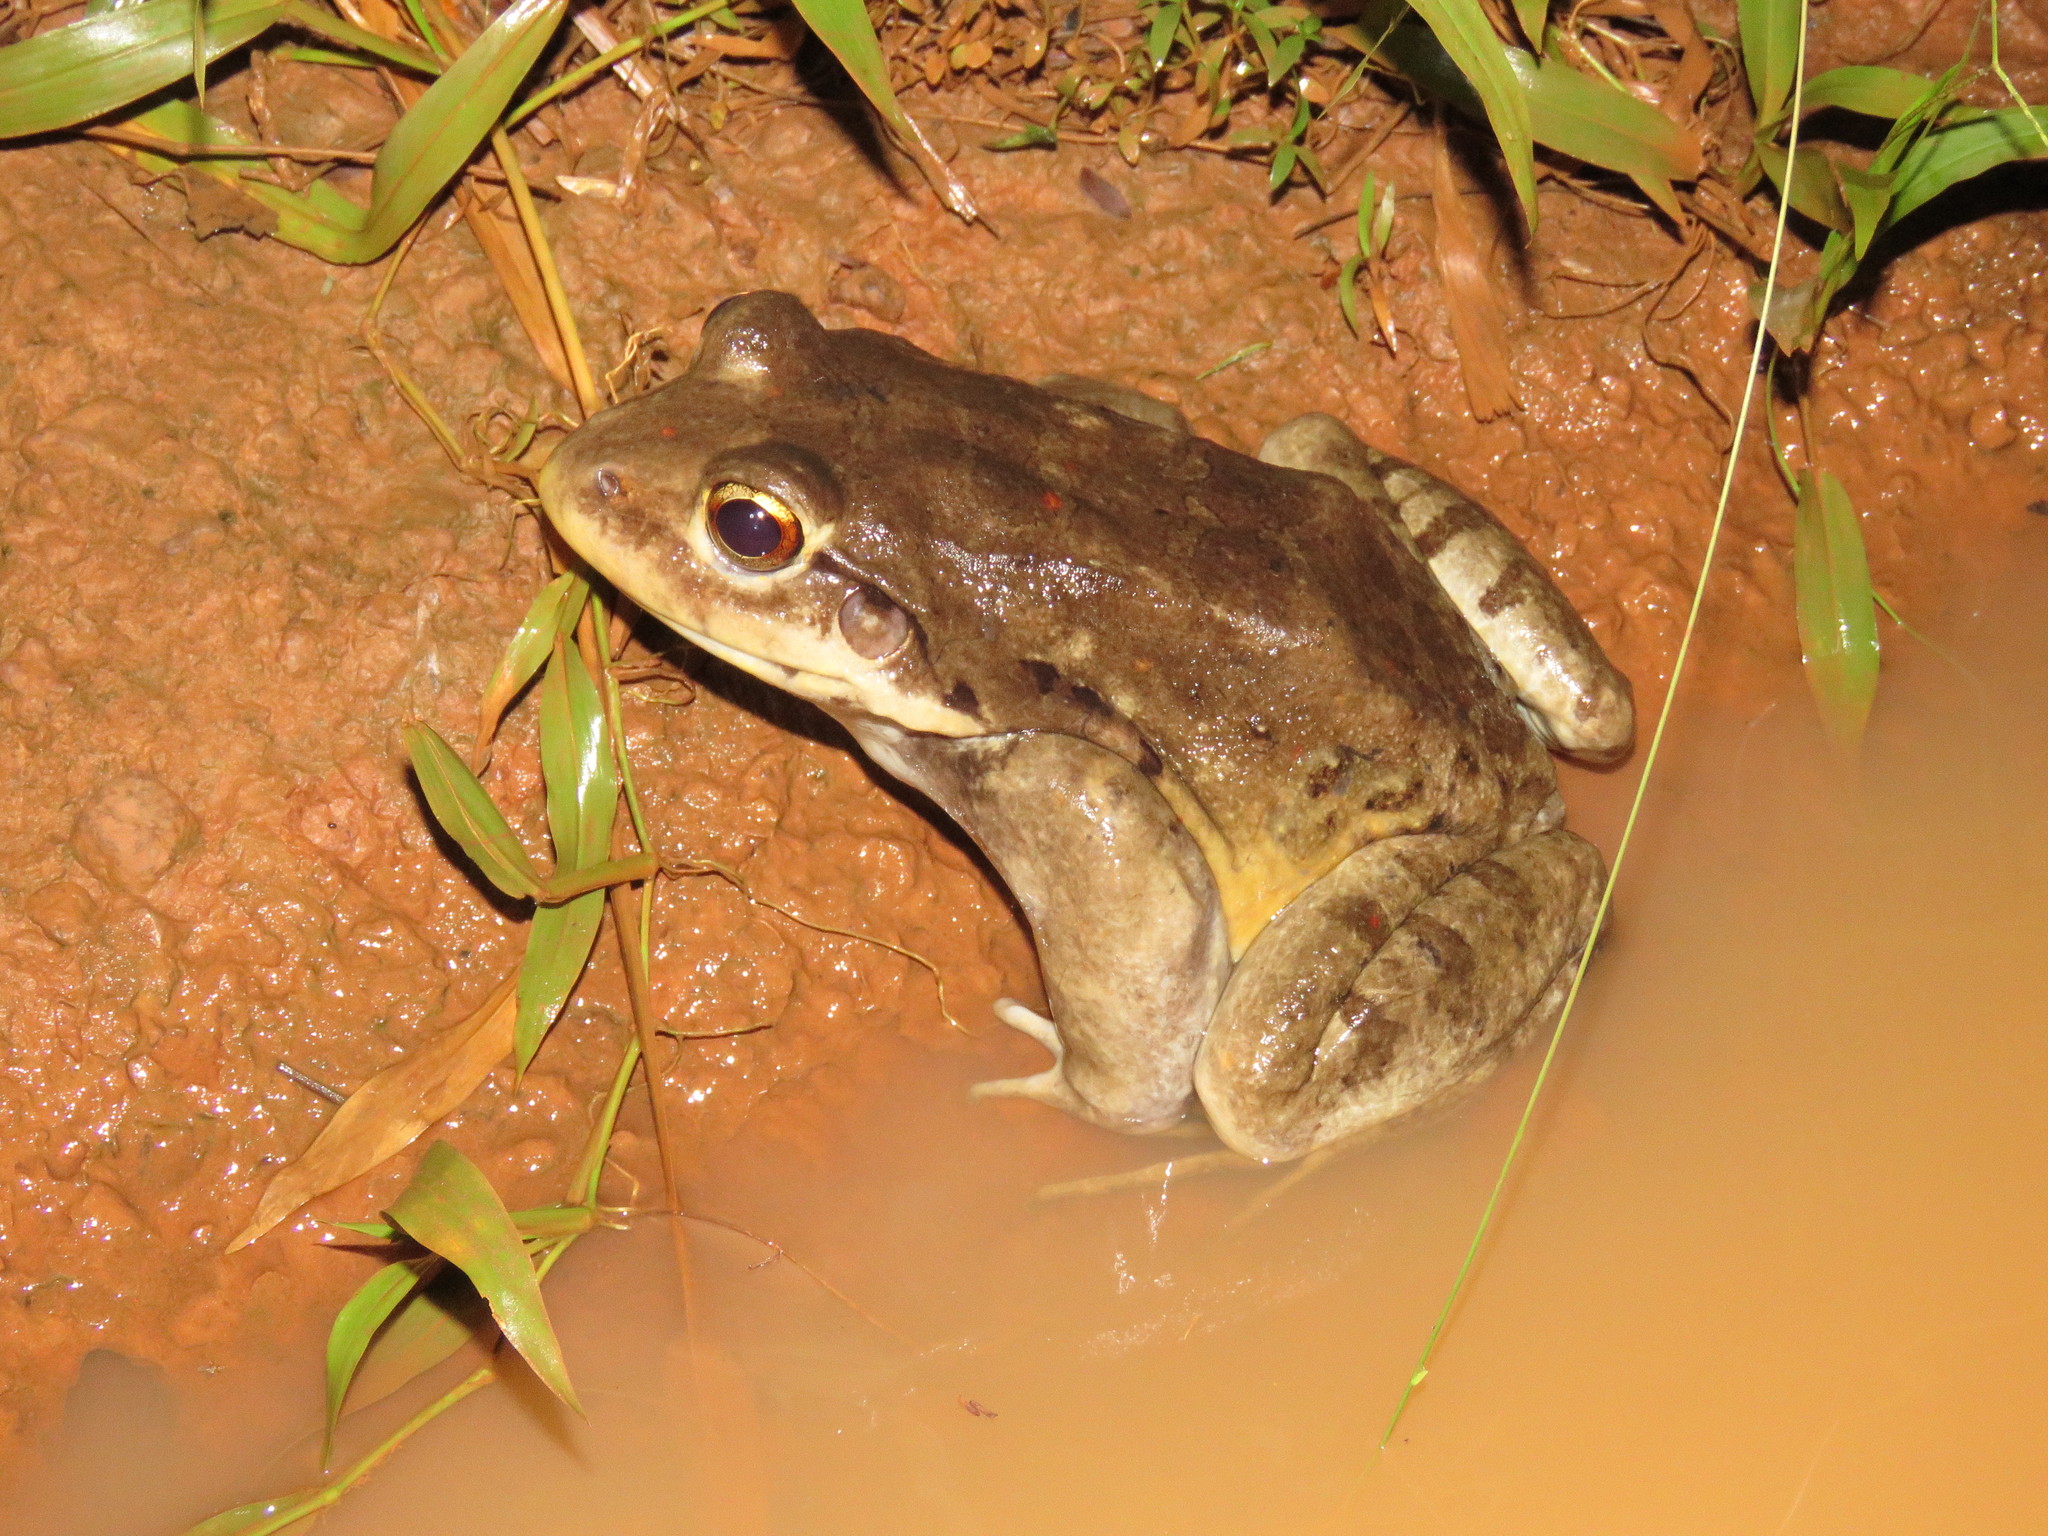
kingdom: Animalia
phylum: Chordata
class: Amphibia
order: Anura
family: Leptodactylidae
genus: Leptodactylus
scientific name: Leptodactylus vastus
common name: Northeastern pepper frog
